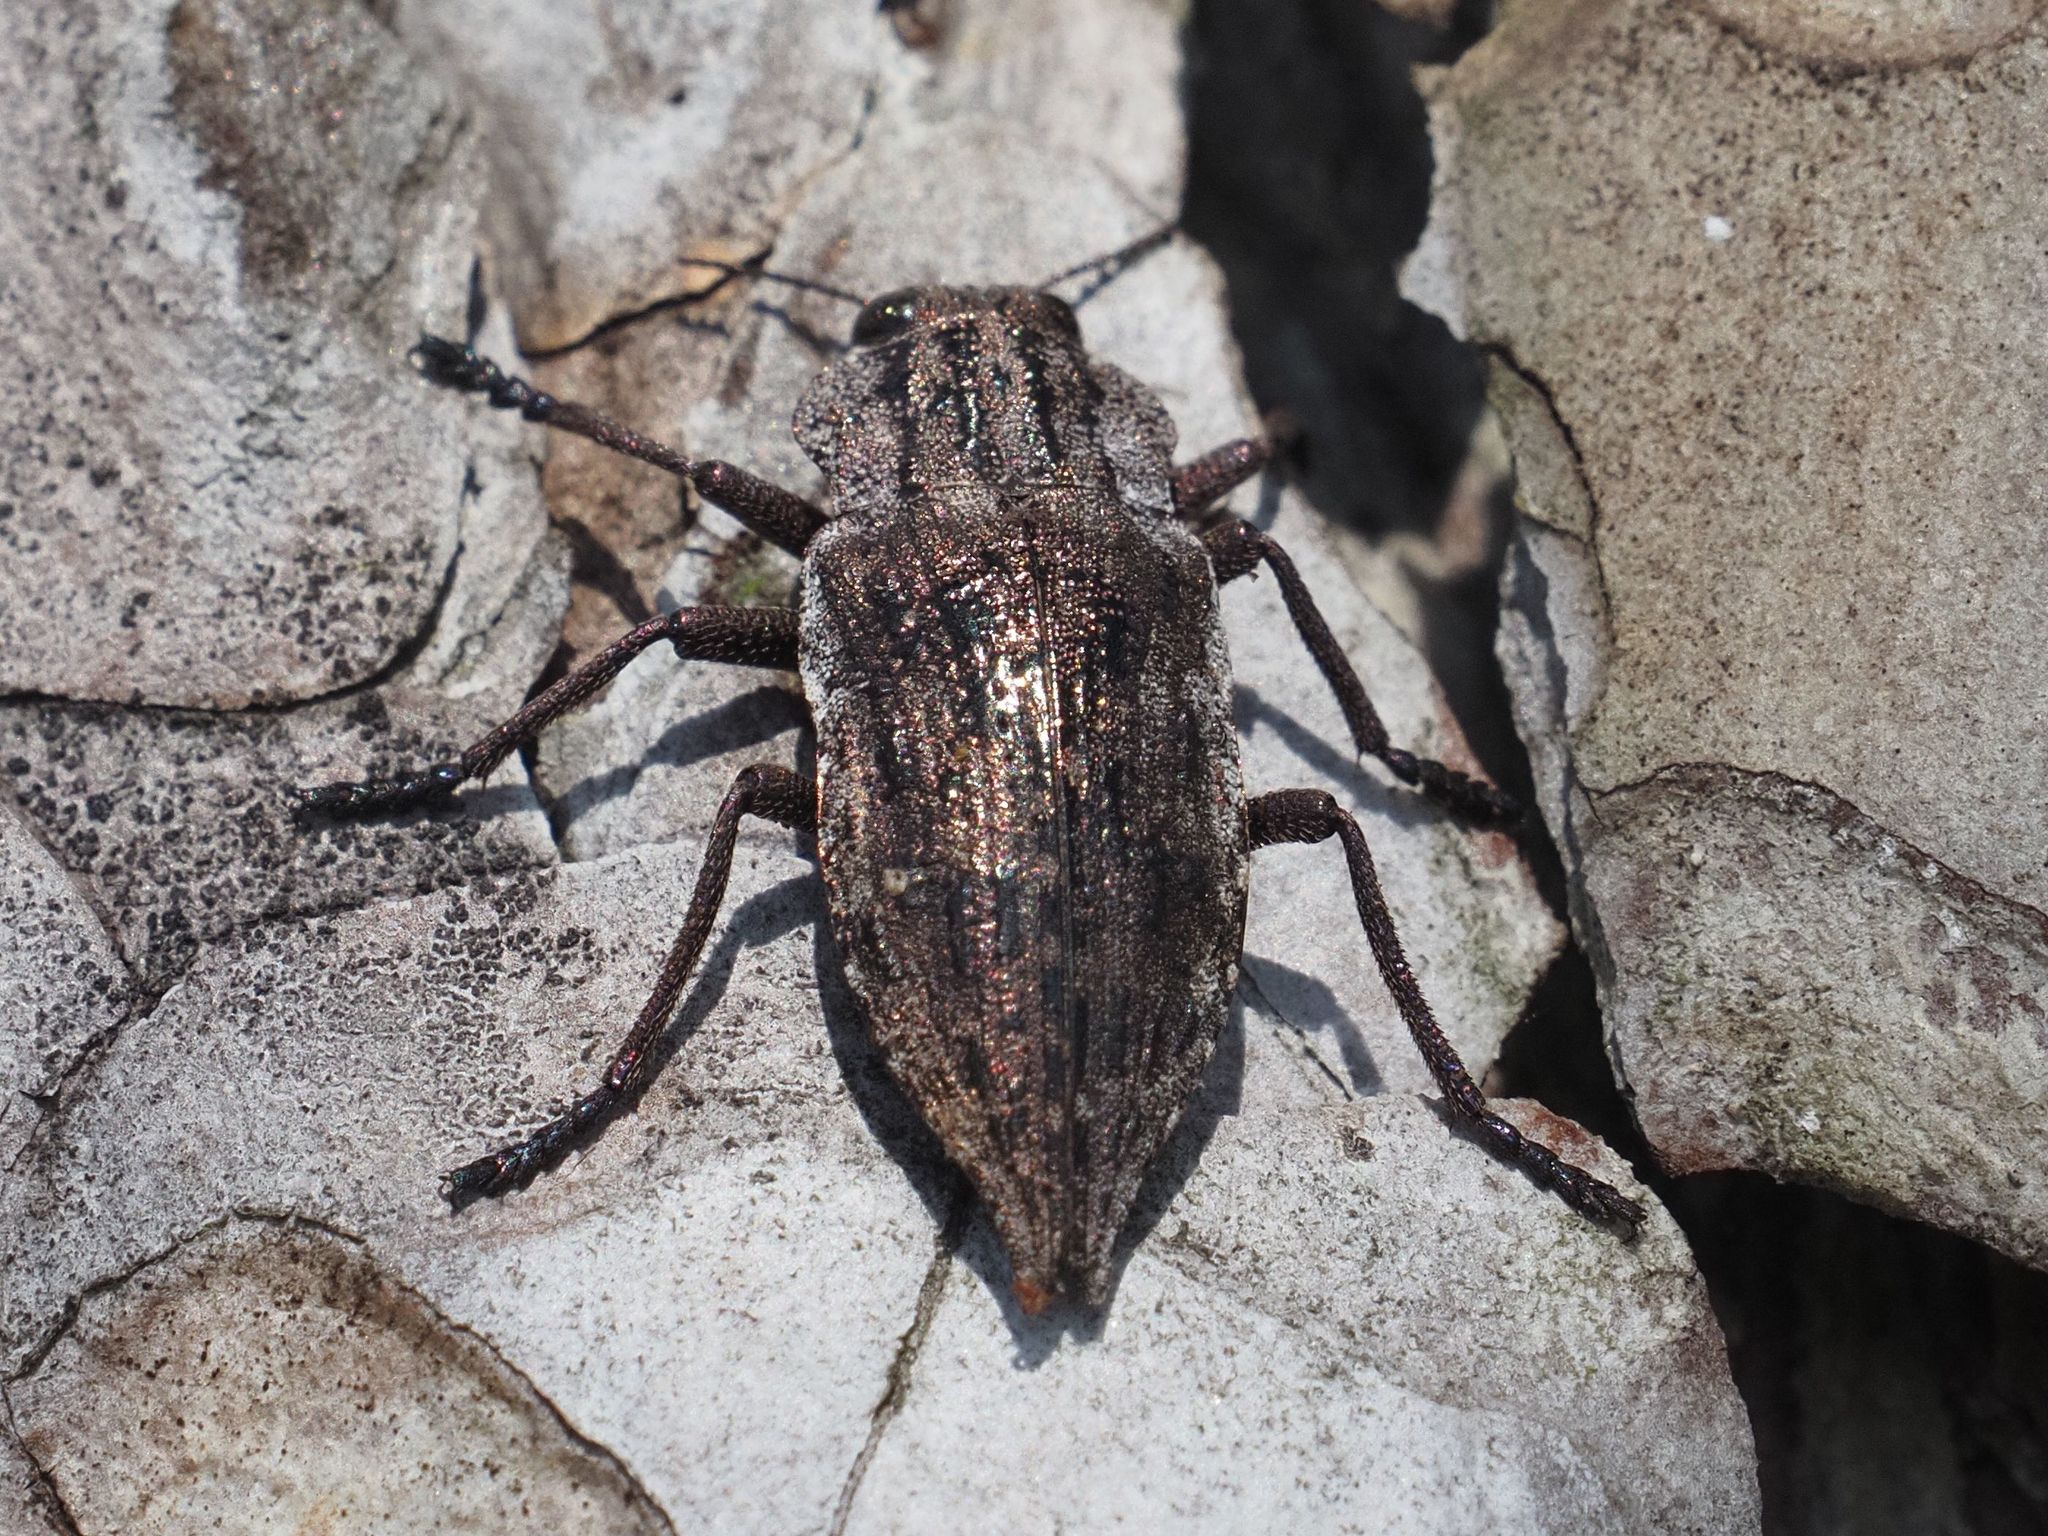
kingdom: Animalia
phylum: Arthropoda
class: Insecta
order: Coleoptera
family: Buprestidae
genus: Dicerca
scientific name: Dicerca moesta
